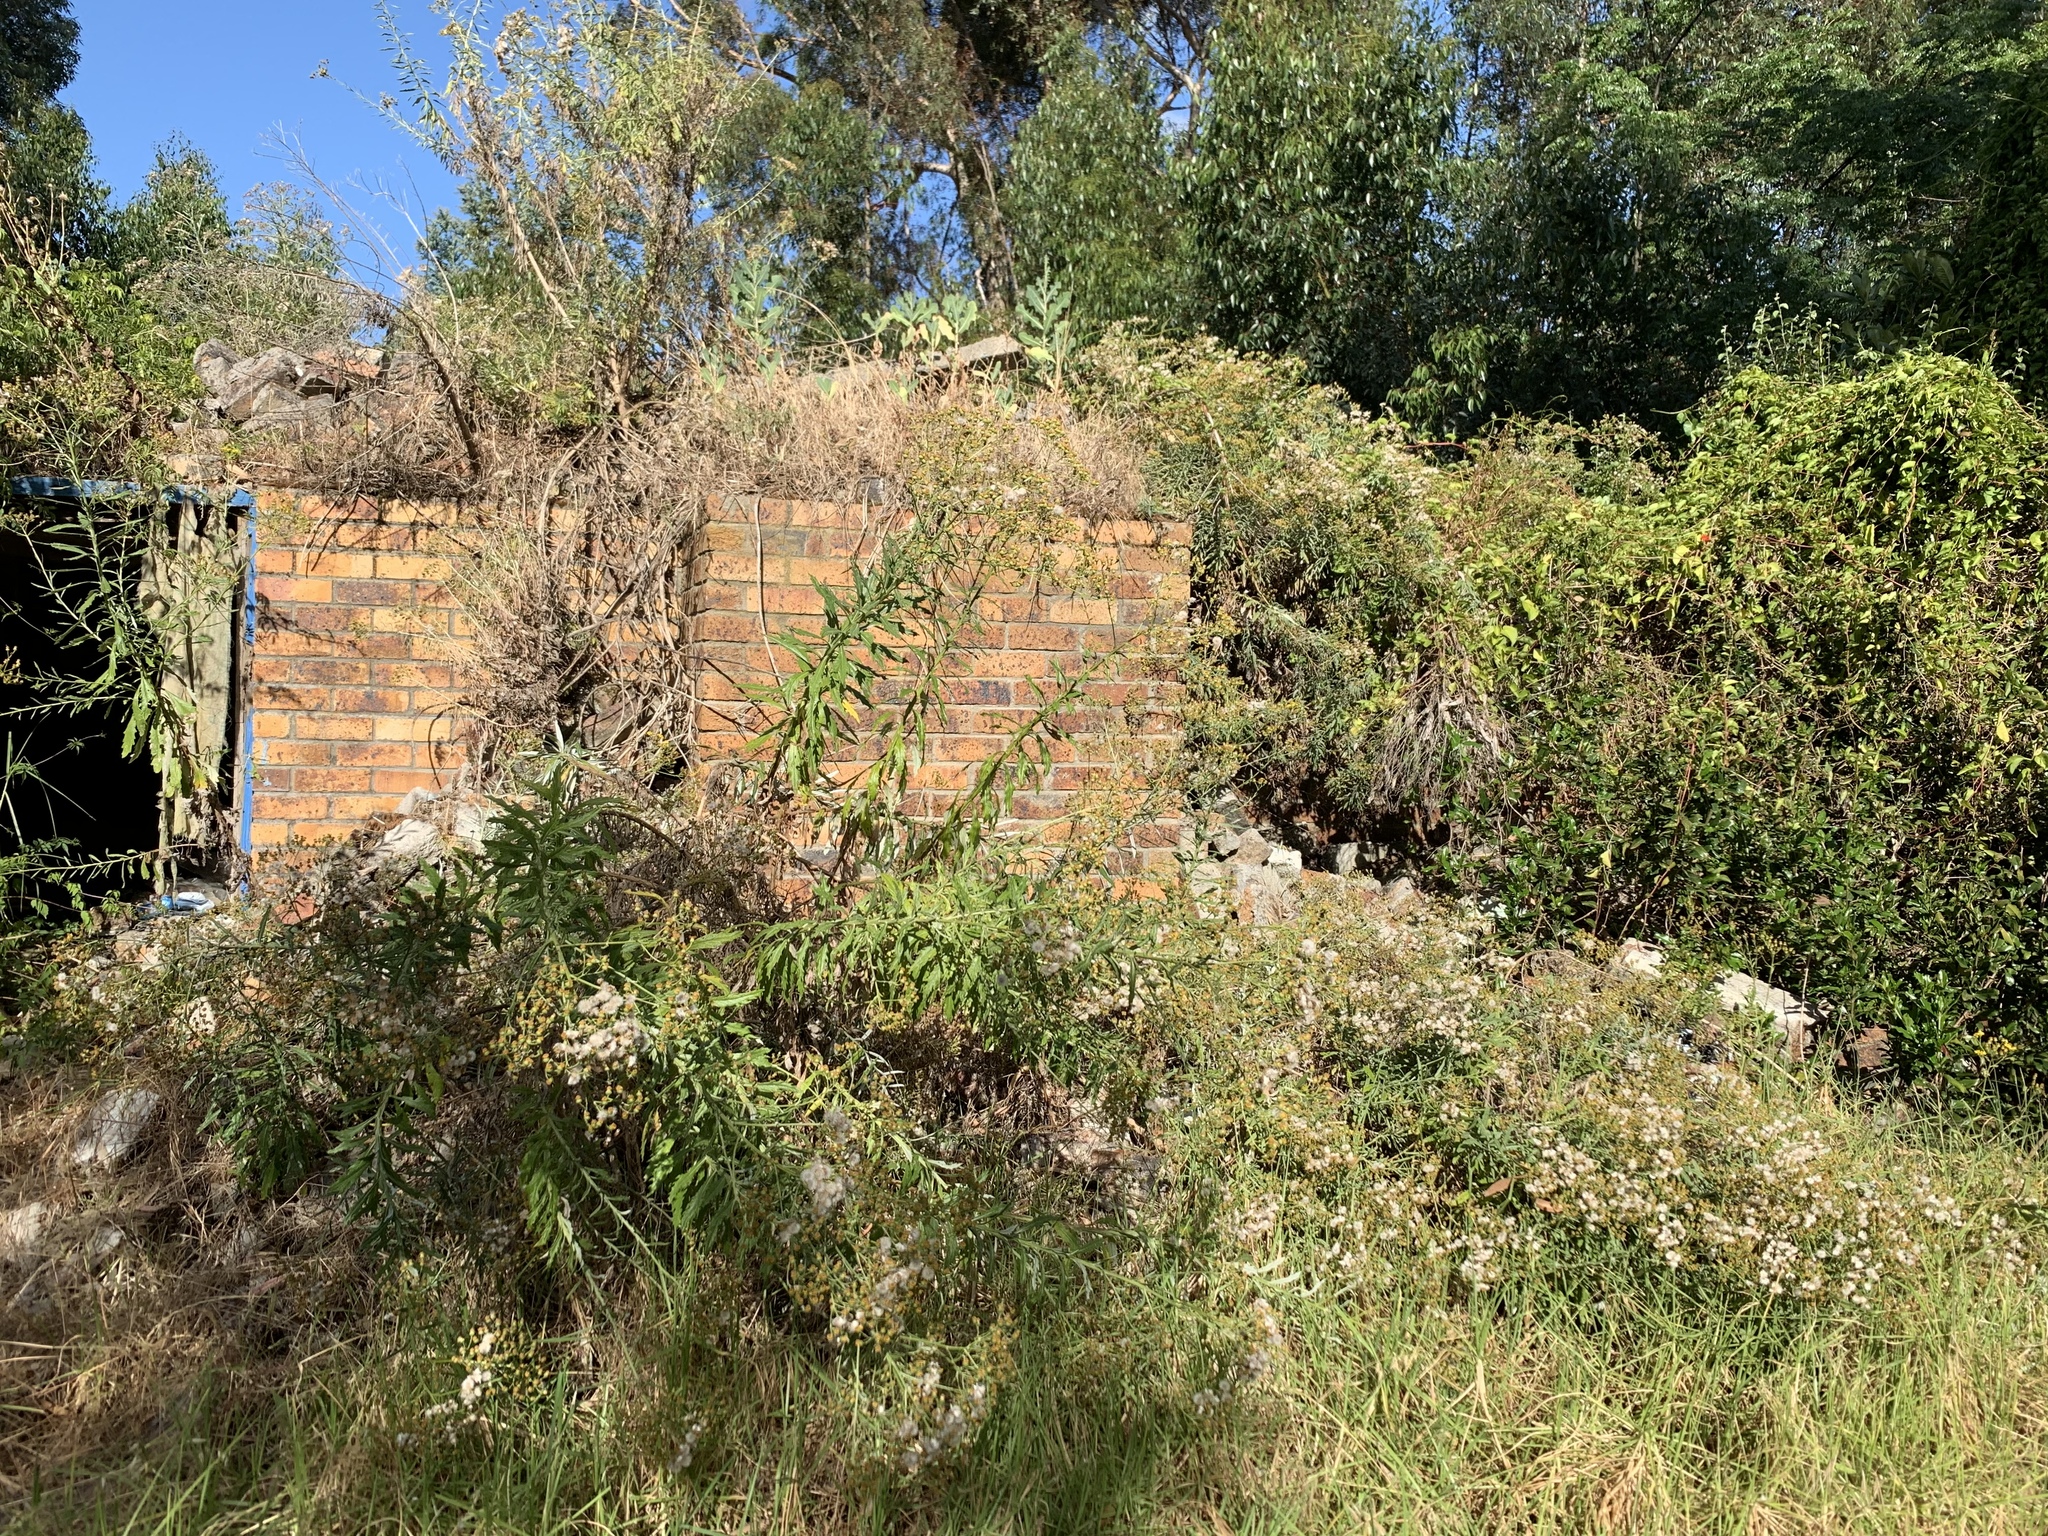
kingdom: Plantae
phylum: Tracheophyta
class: Magnoliopsida
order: Asterales
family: Asteraceae
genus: Senecio
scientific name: Senecio pterophorus
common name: Shoddy ragwort
